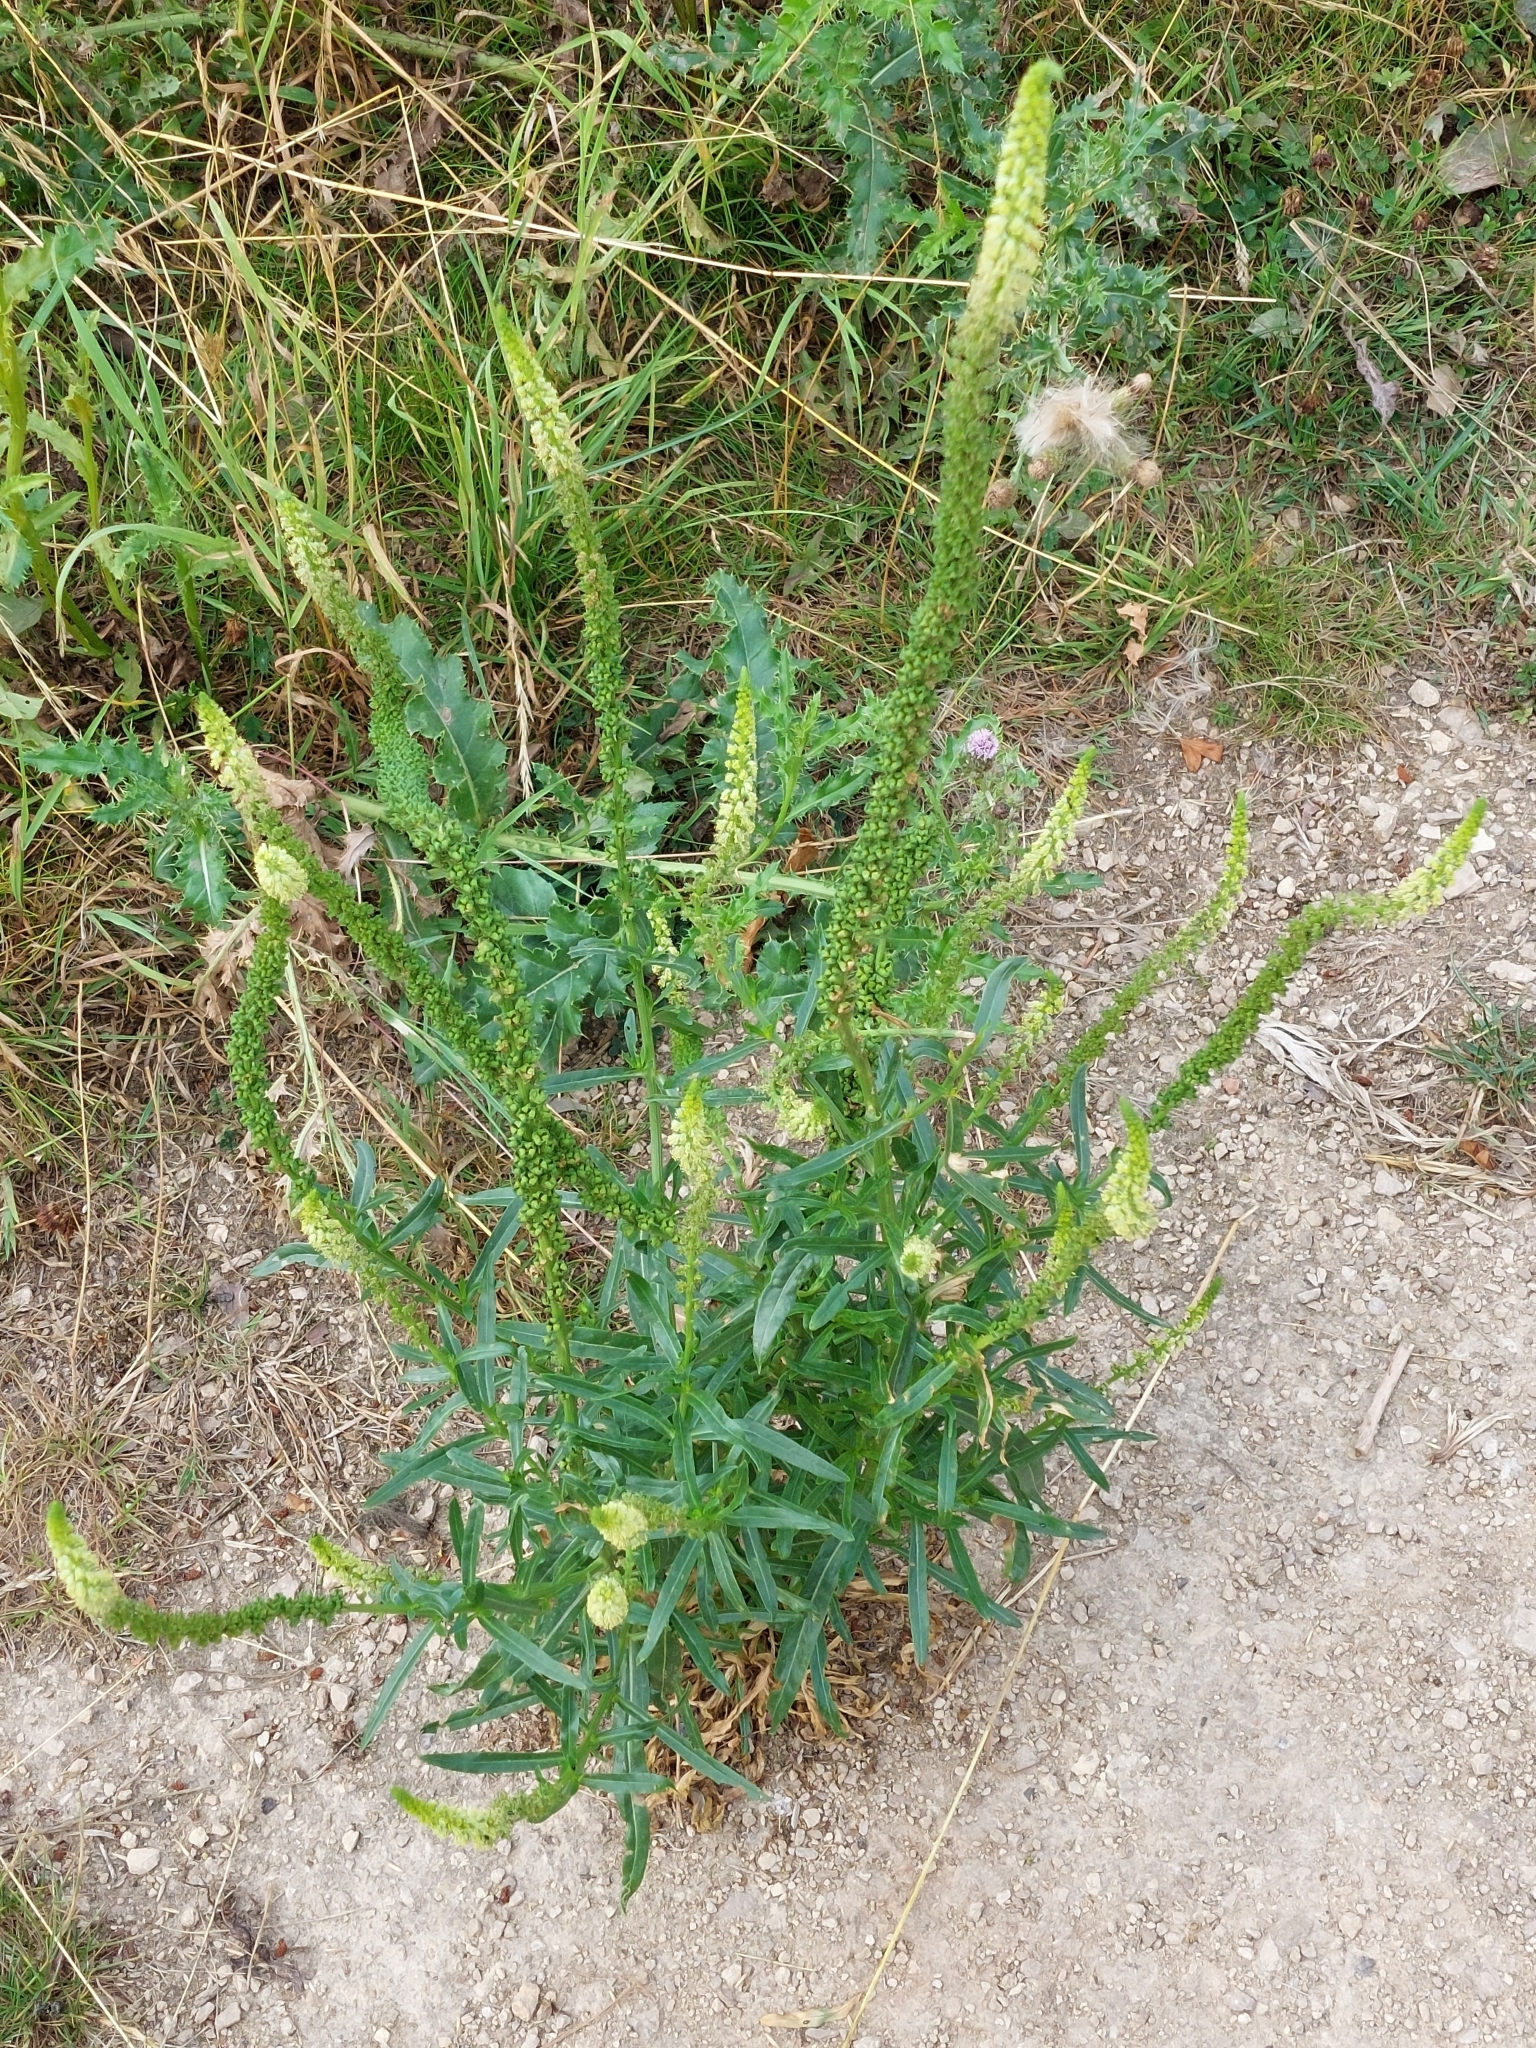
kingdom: Plantae
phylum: Tracheophyta
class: Magnoliopsida
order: Brassicales
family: Resedaceae
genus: Reseda
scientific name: Reseda luteola
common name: Weld
